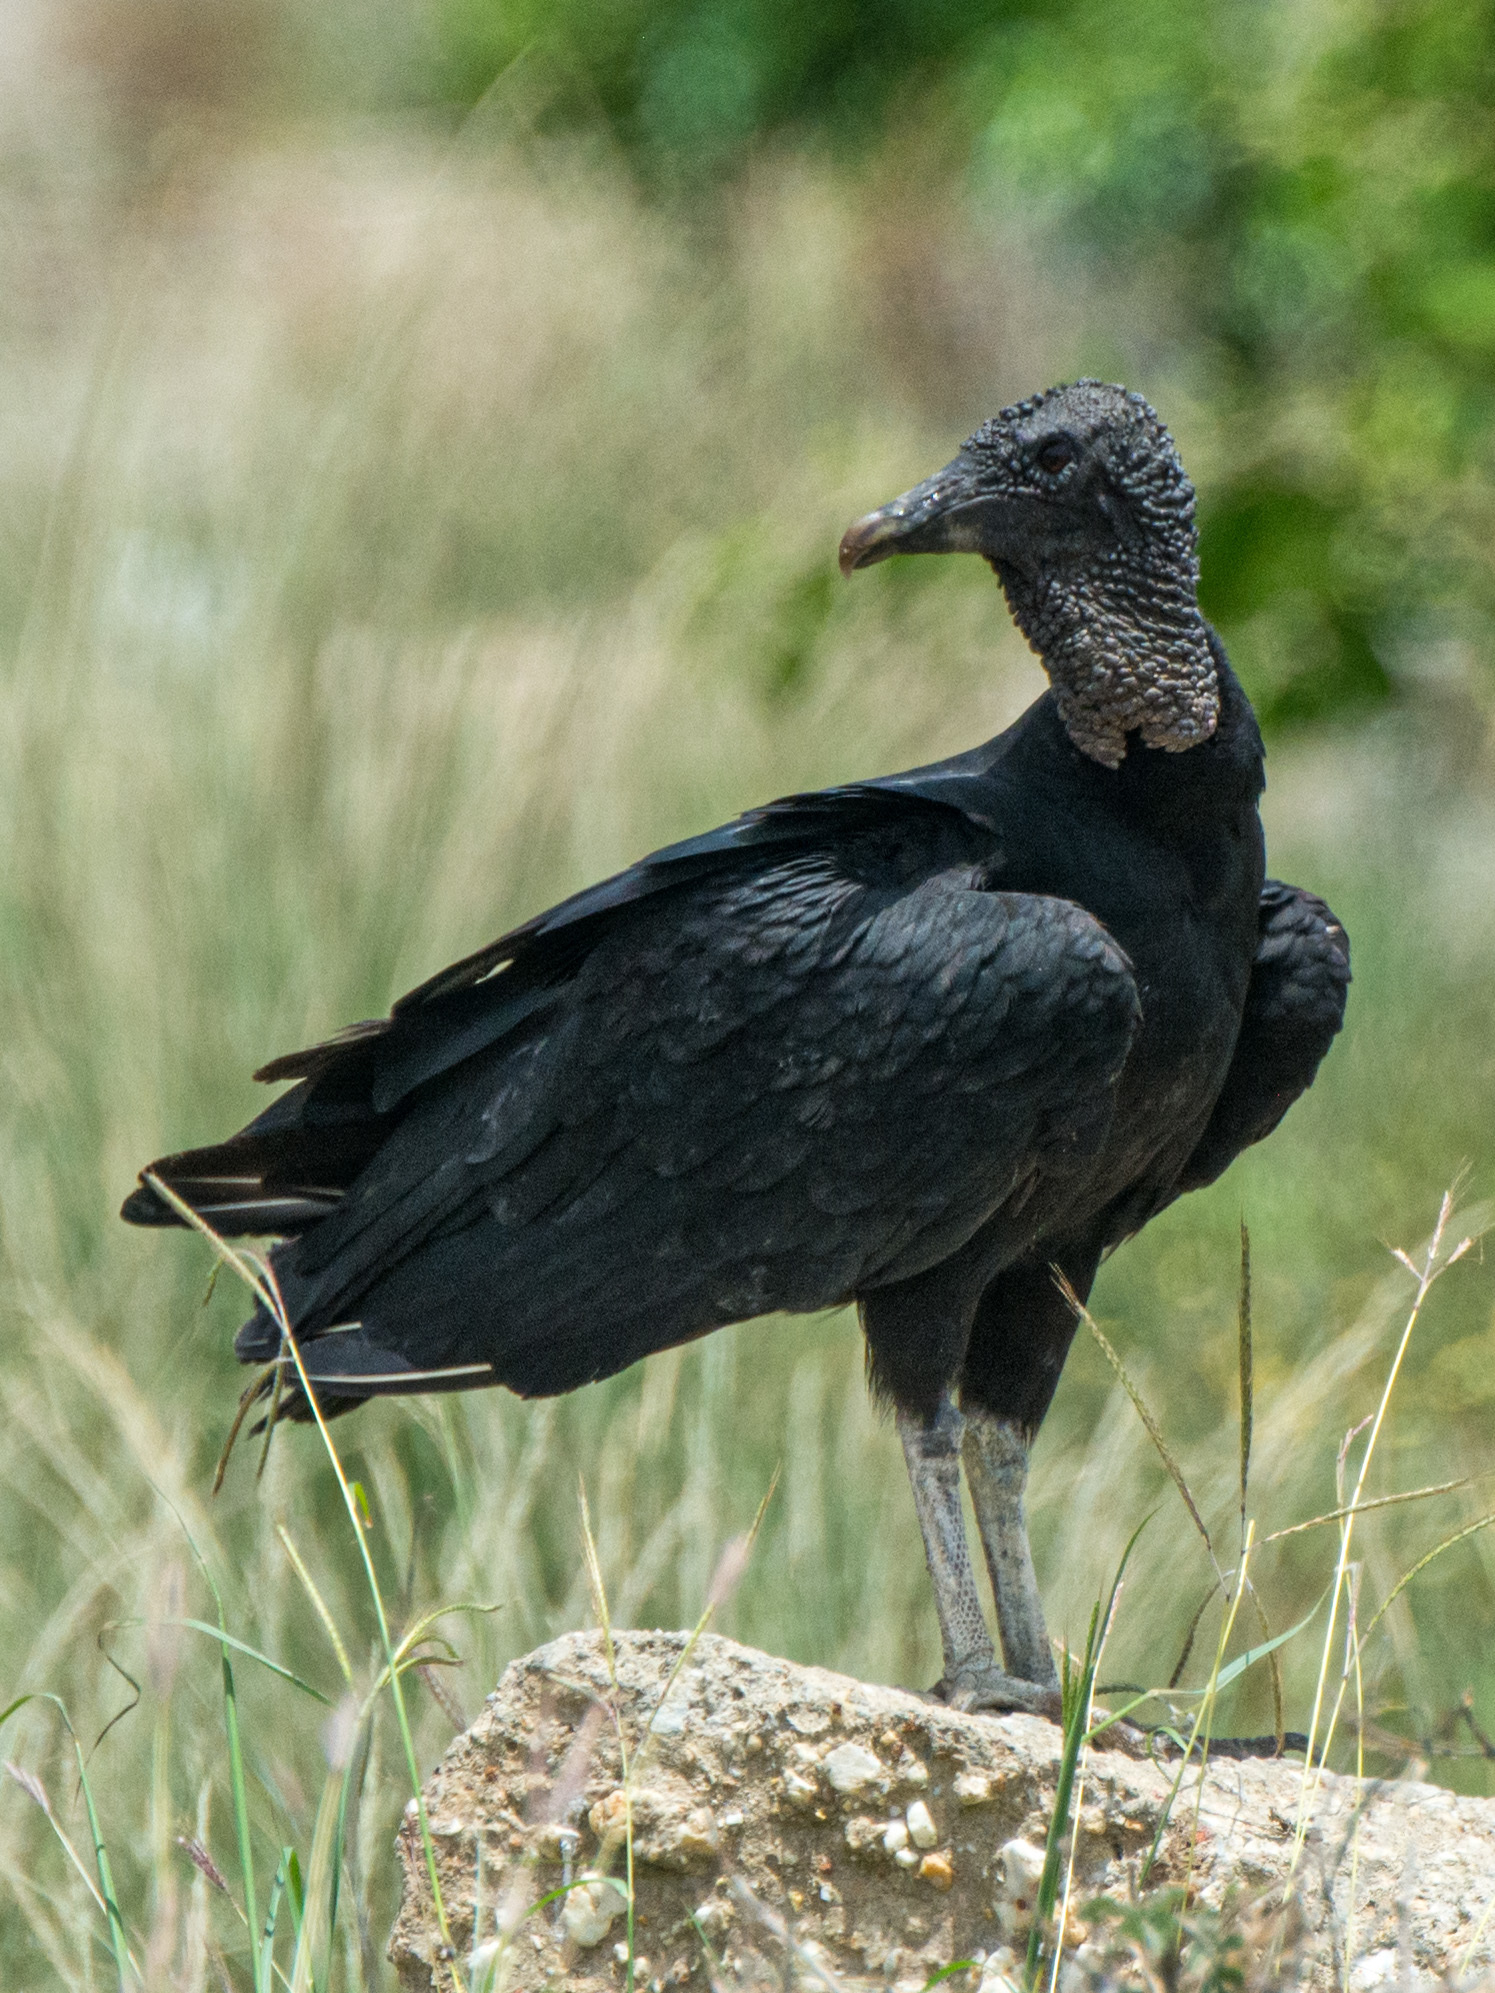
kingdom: Animalia
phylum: Chordata
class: Aves
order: Accipitriformes
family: Cathartidae
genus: Coragyps
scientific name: Coragyps atratus
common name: Black vulture
